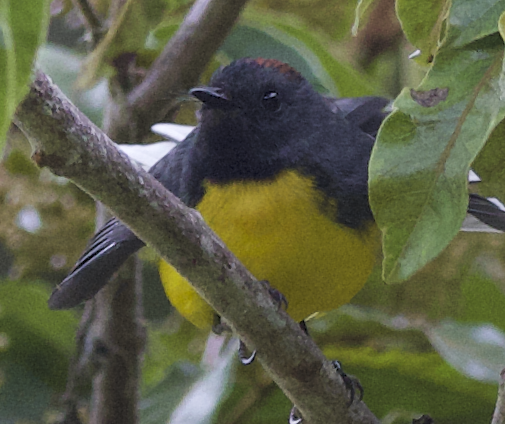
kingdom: Animalia
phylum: Chordata
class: Aves
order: Passeriformes
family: Parulidae
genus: Myioborus
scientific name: Myioborus miniatus
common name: Slate-throated redstart
